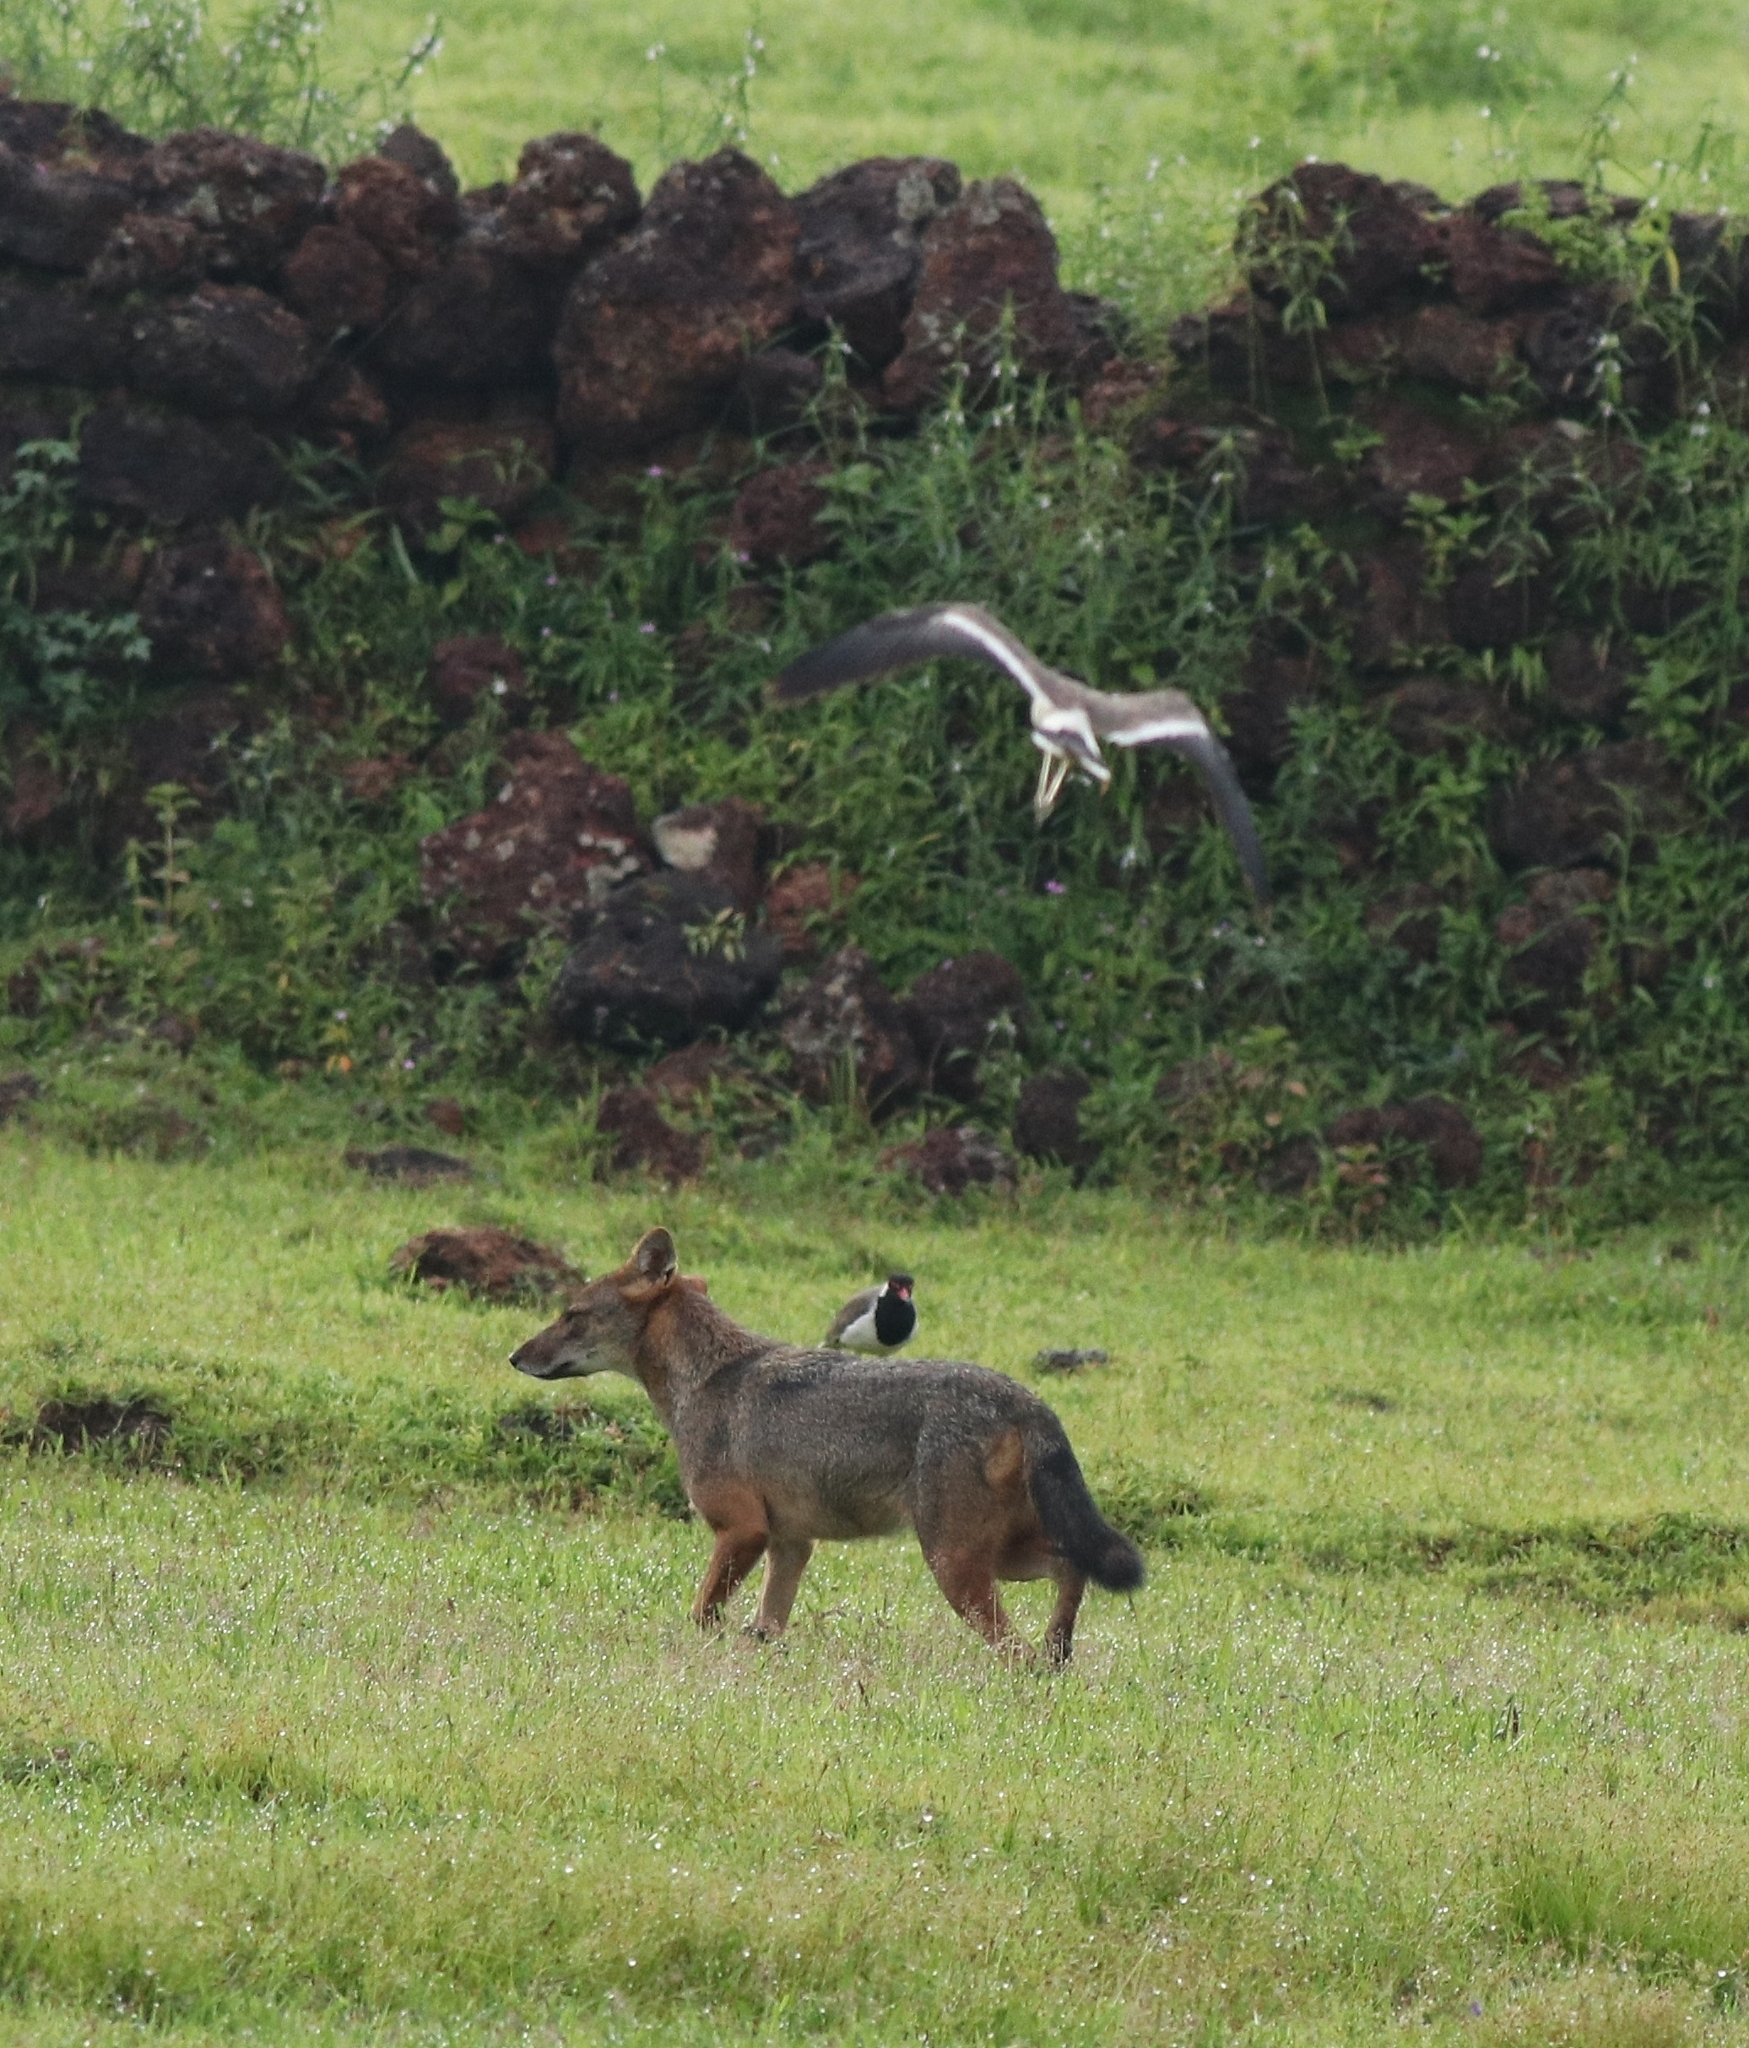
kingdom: Animalia
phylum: Chordata
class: Aves
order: Charadriiformes
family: Charadriidae
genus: Vanellus
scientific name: Vanellus indicus
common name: Red-wattled lapwing
